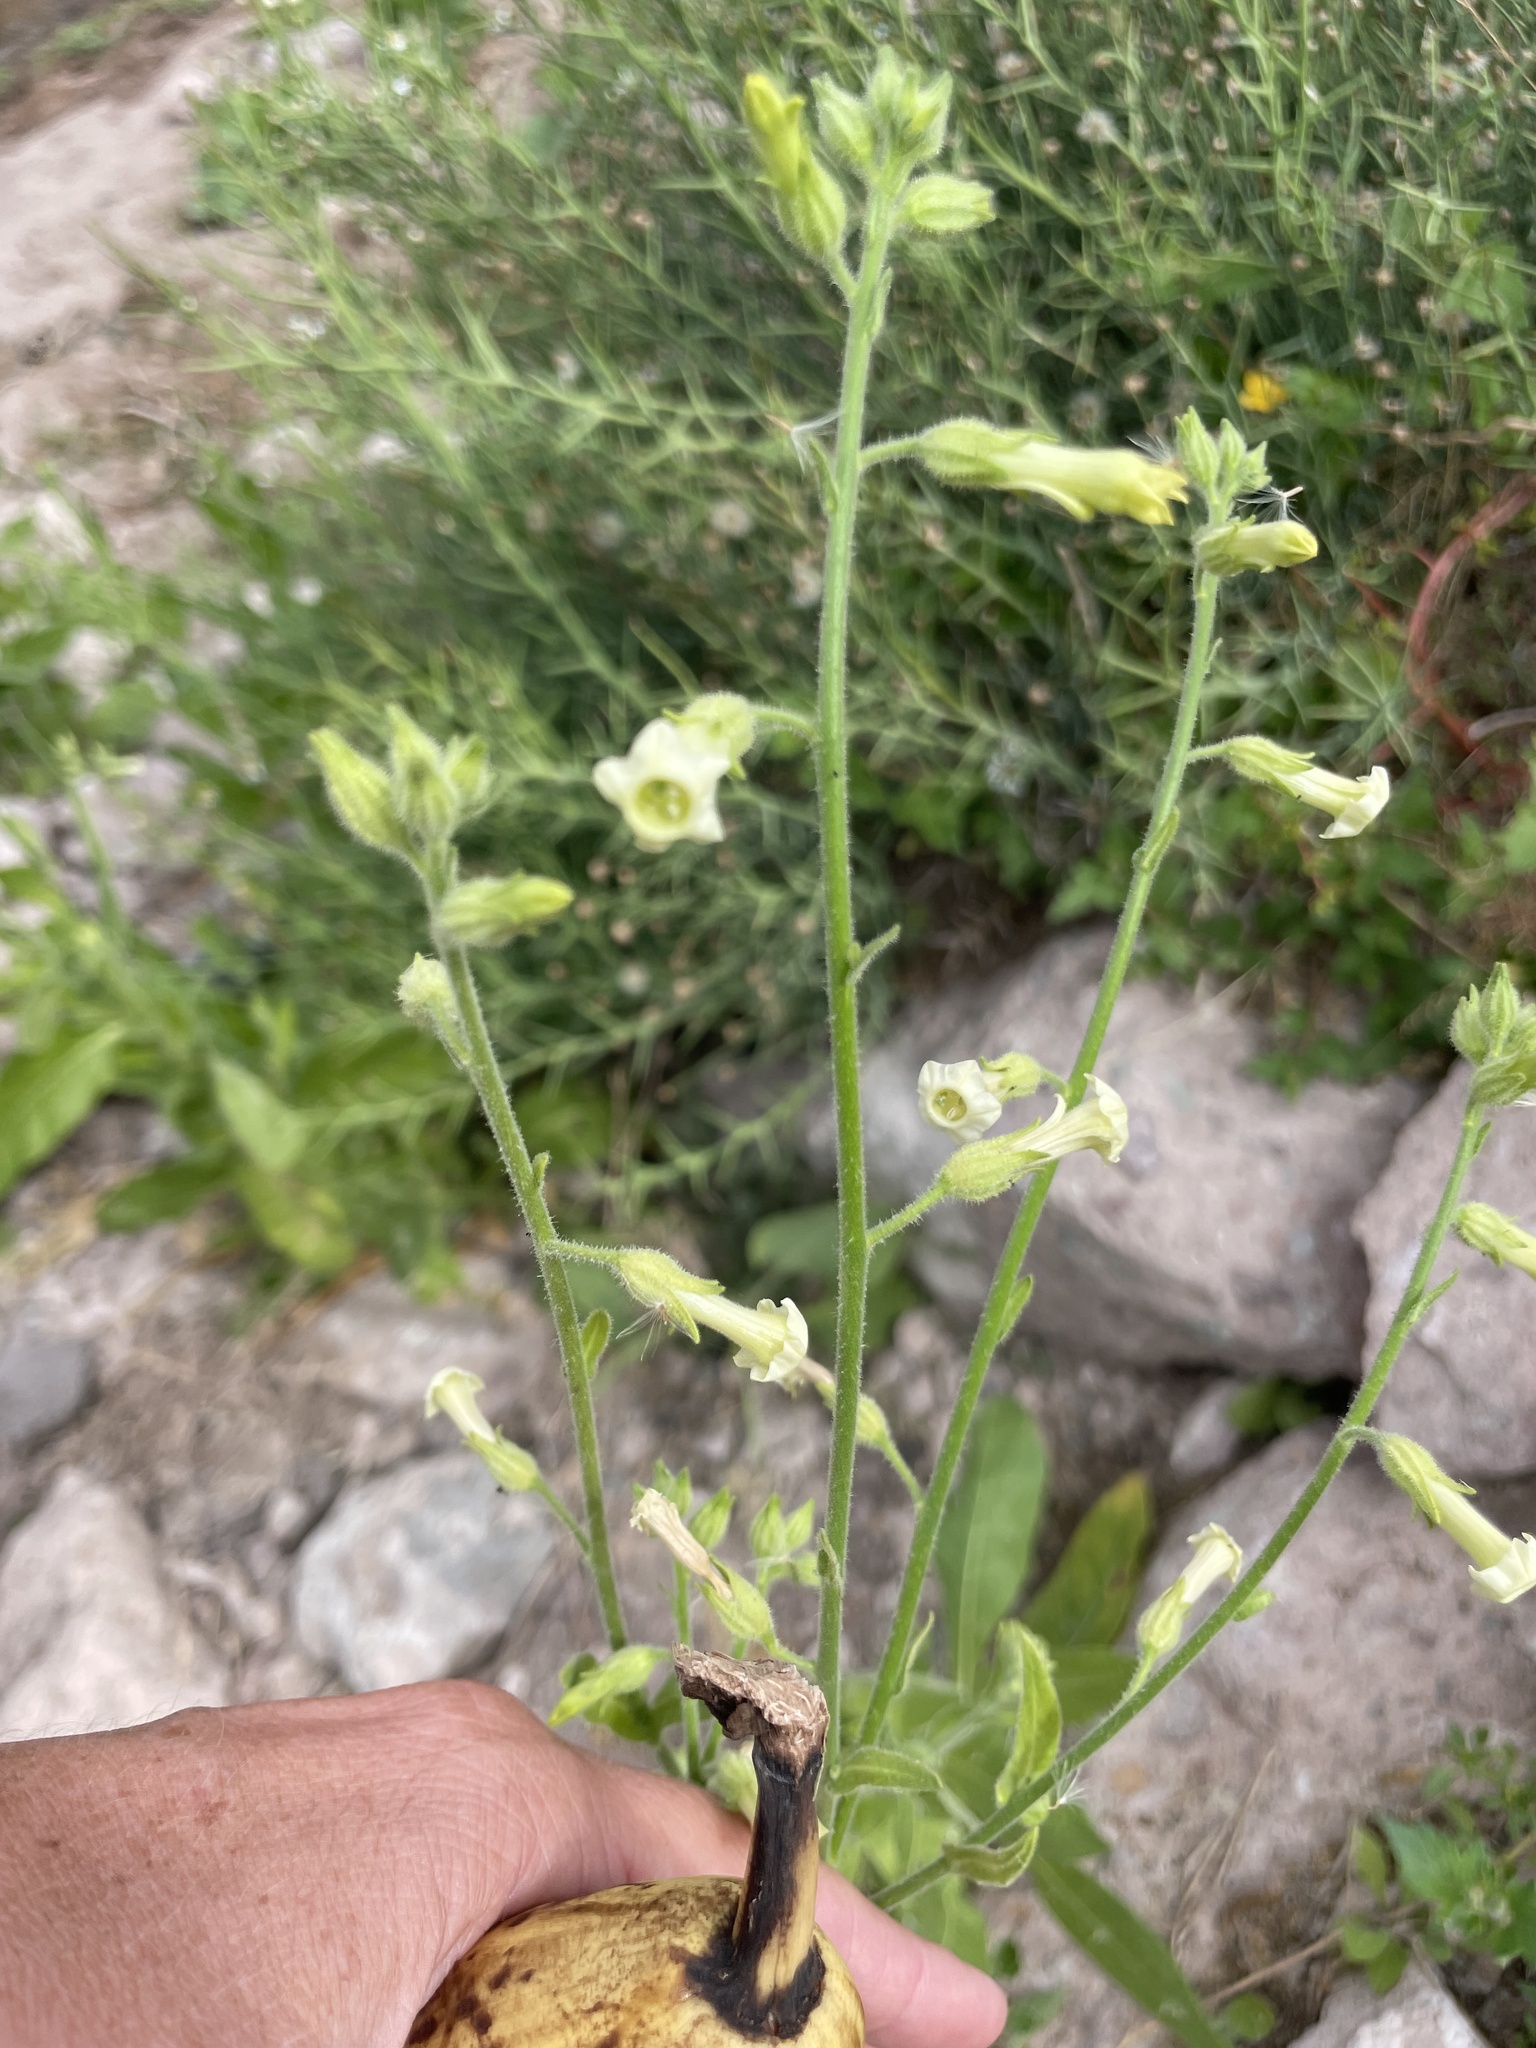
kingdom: Plantae
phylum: Tracheophyta
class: Magnoliopsida
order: Solanales
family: Solanaceae
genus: Nicotiana
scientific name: Nicotiana obtusifolia
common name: Desert tobacco
